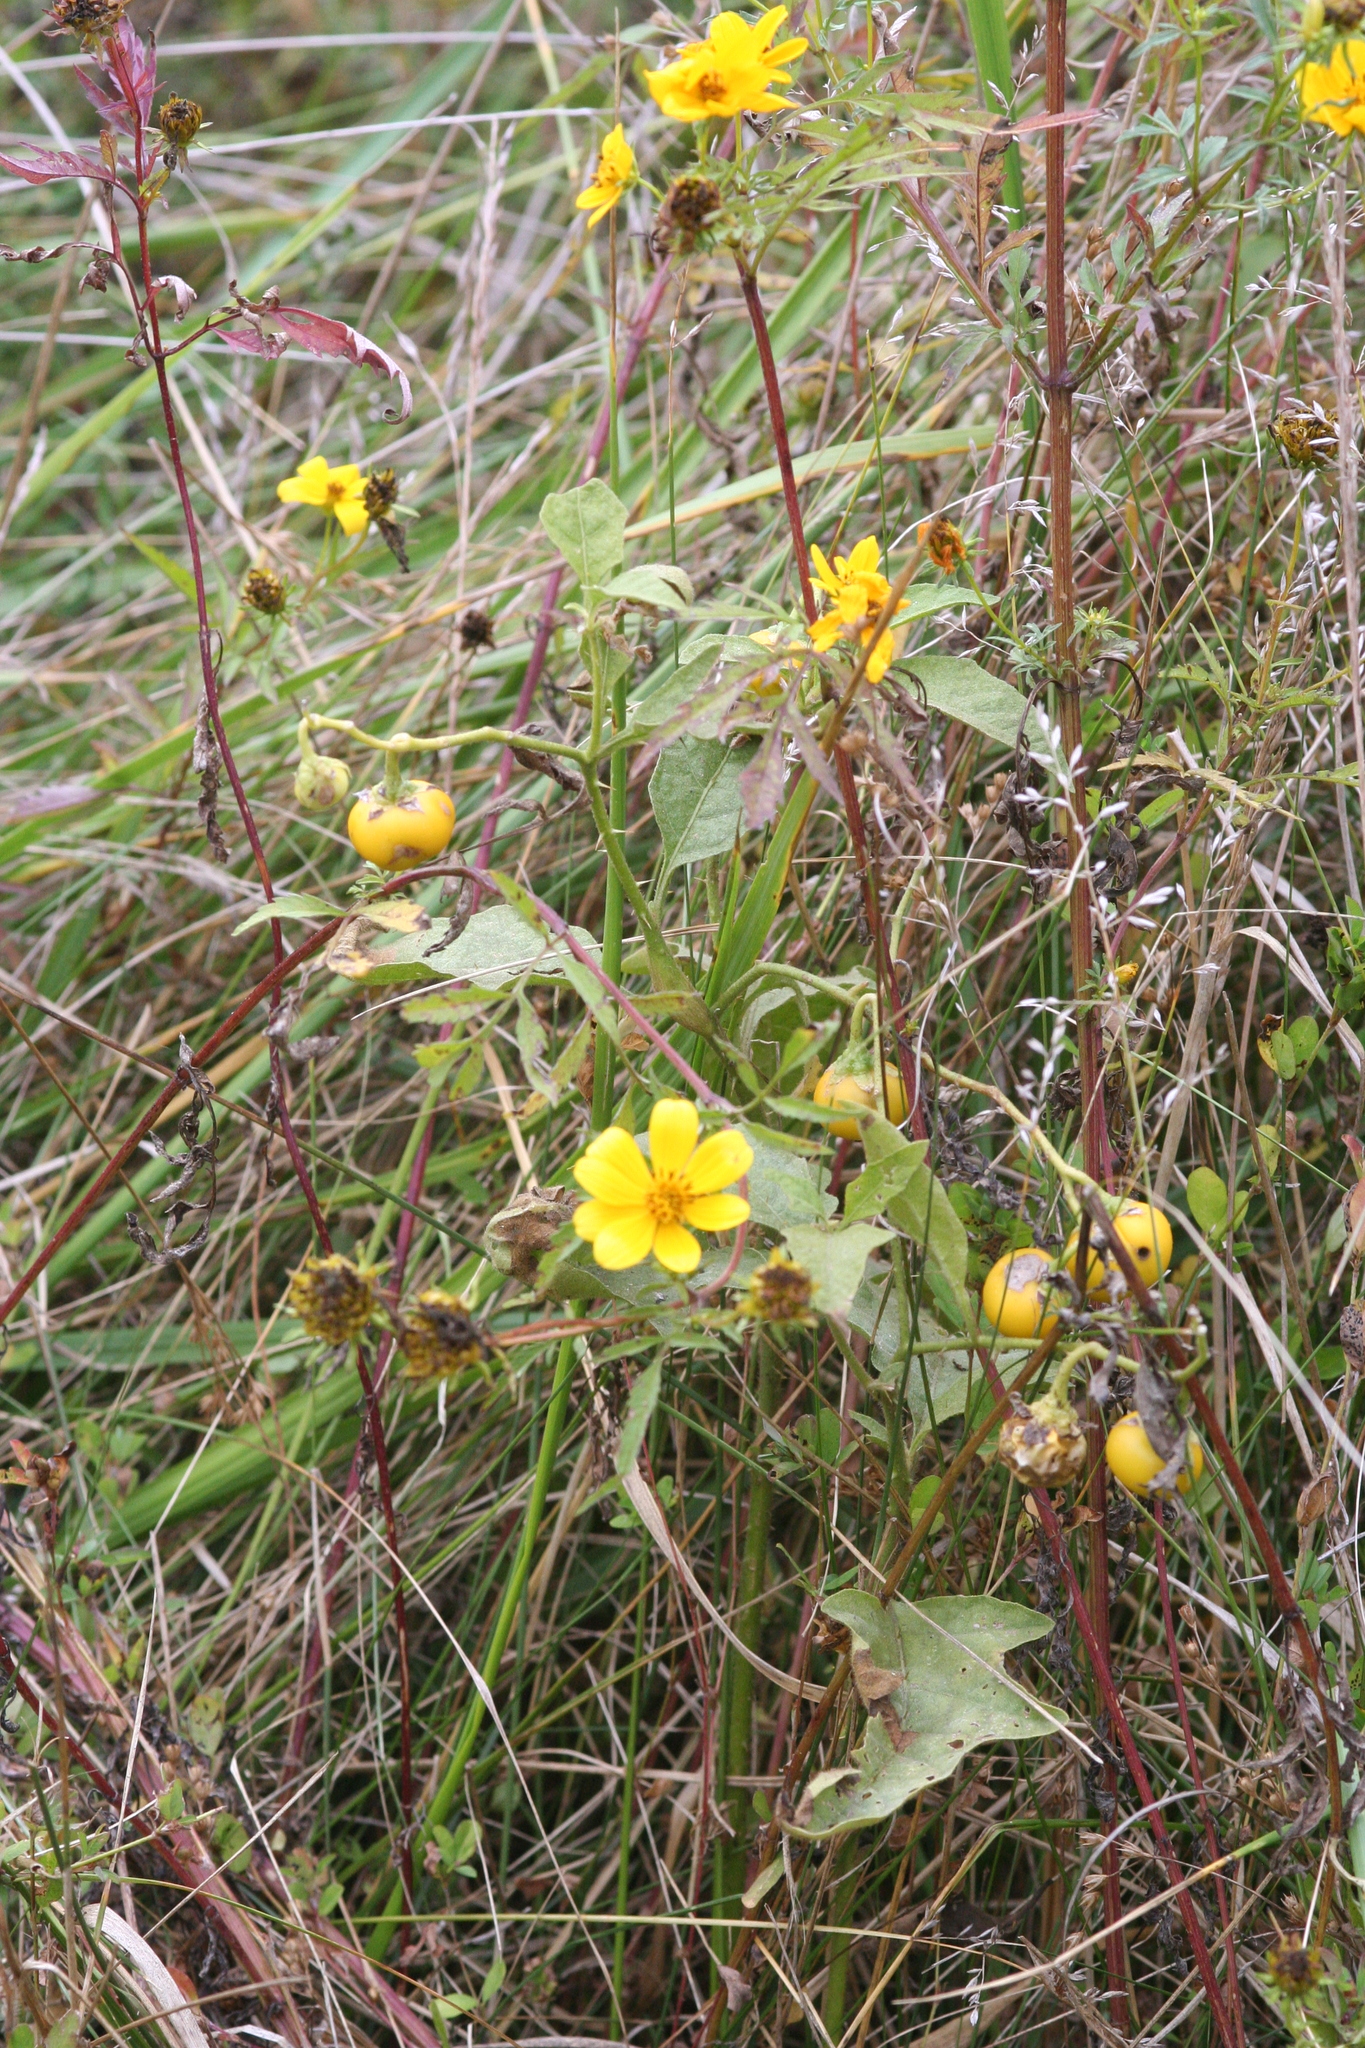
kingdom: Plantae
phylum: Tracheophyta
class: Magnoliopsida
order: Solanales
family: Solanaceae
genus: Solanum
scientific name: Solanum carolinense
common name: Horse-nettle
